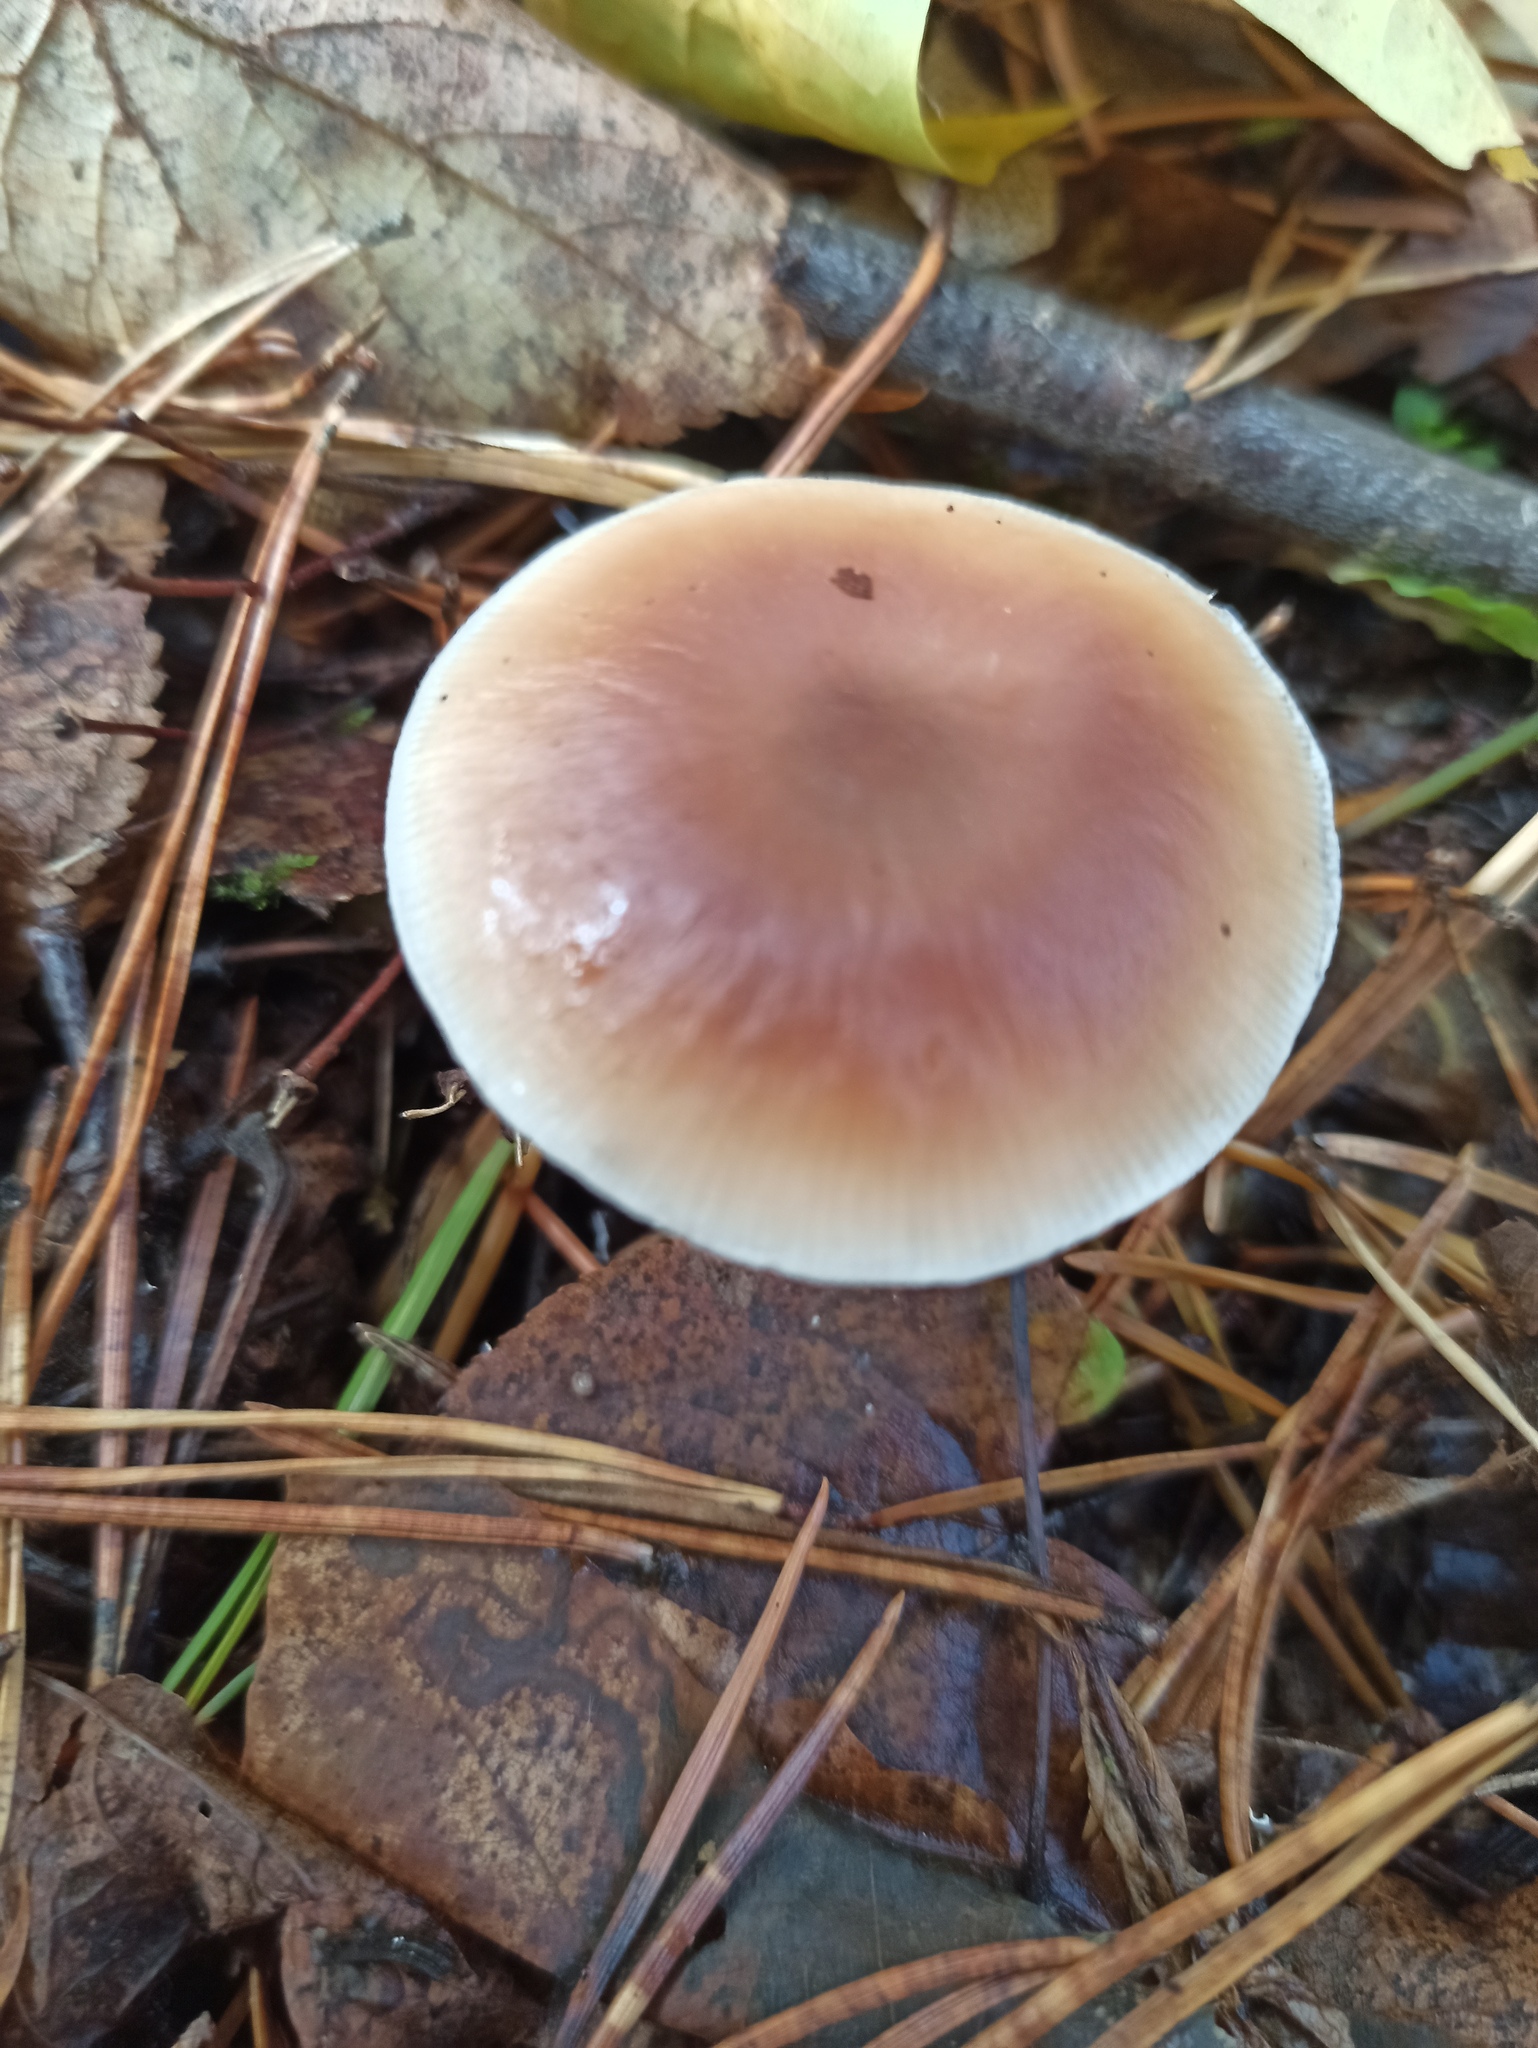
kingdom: Fungi
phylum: Basidiomycota
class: Agaricomycetes
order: Agaricales
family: Omphalotaceae
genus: Rhodocollybia
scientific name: Rhodocollybia butyracea
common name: Butter cap
